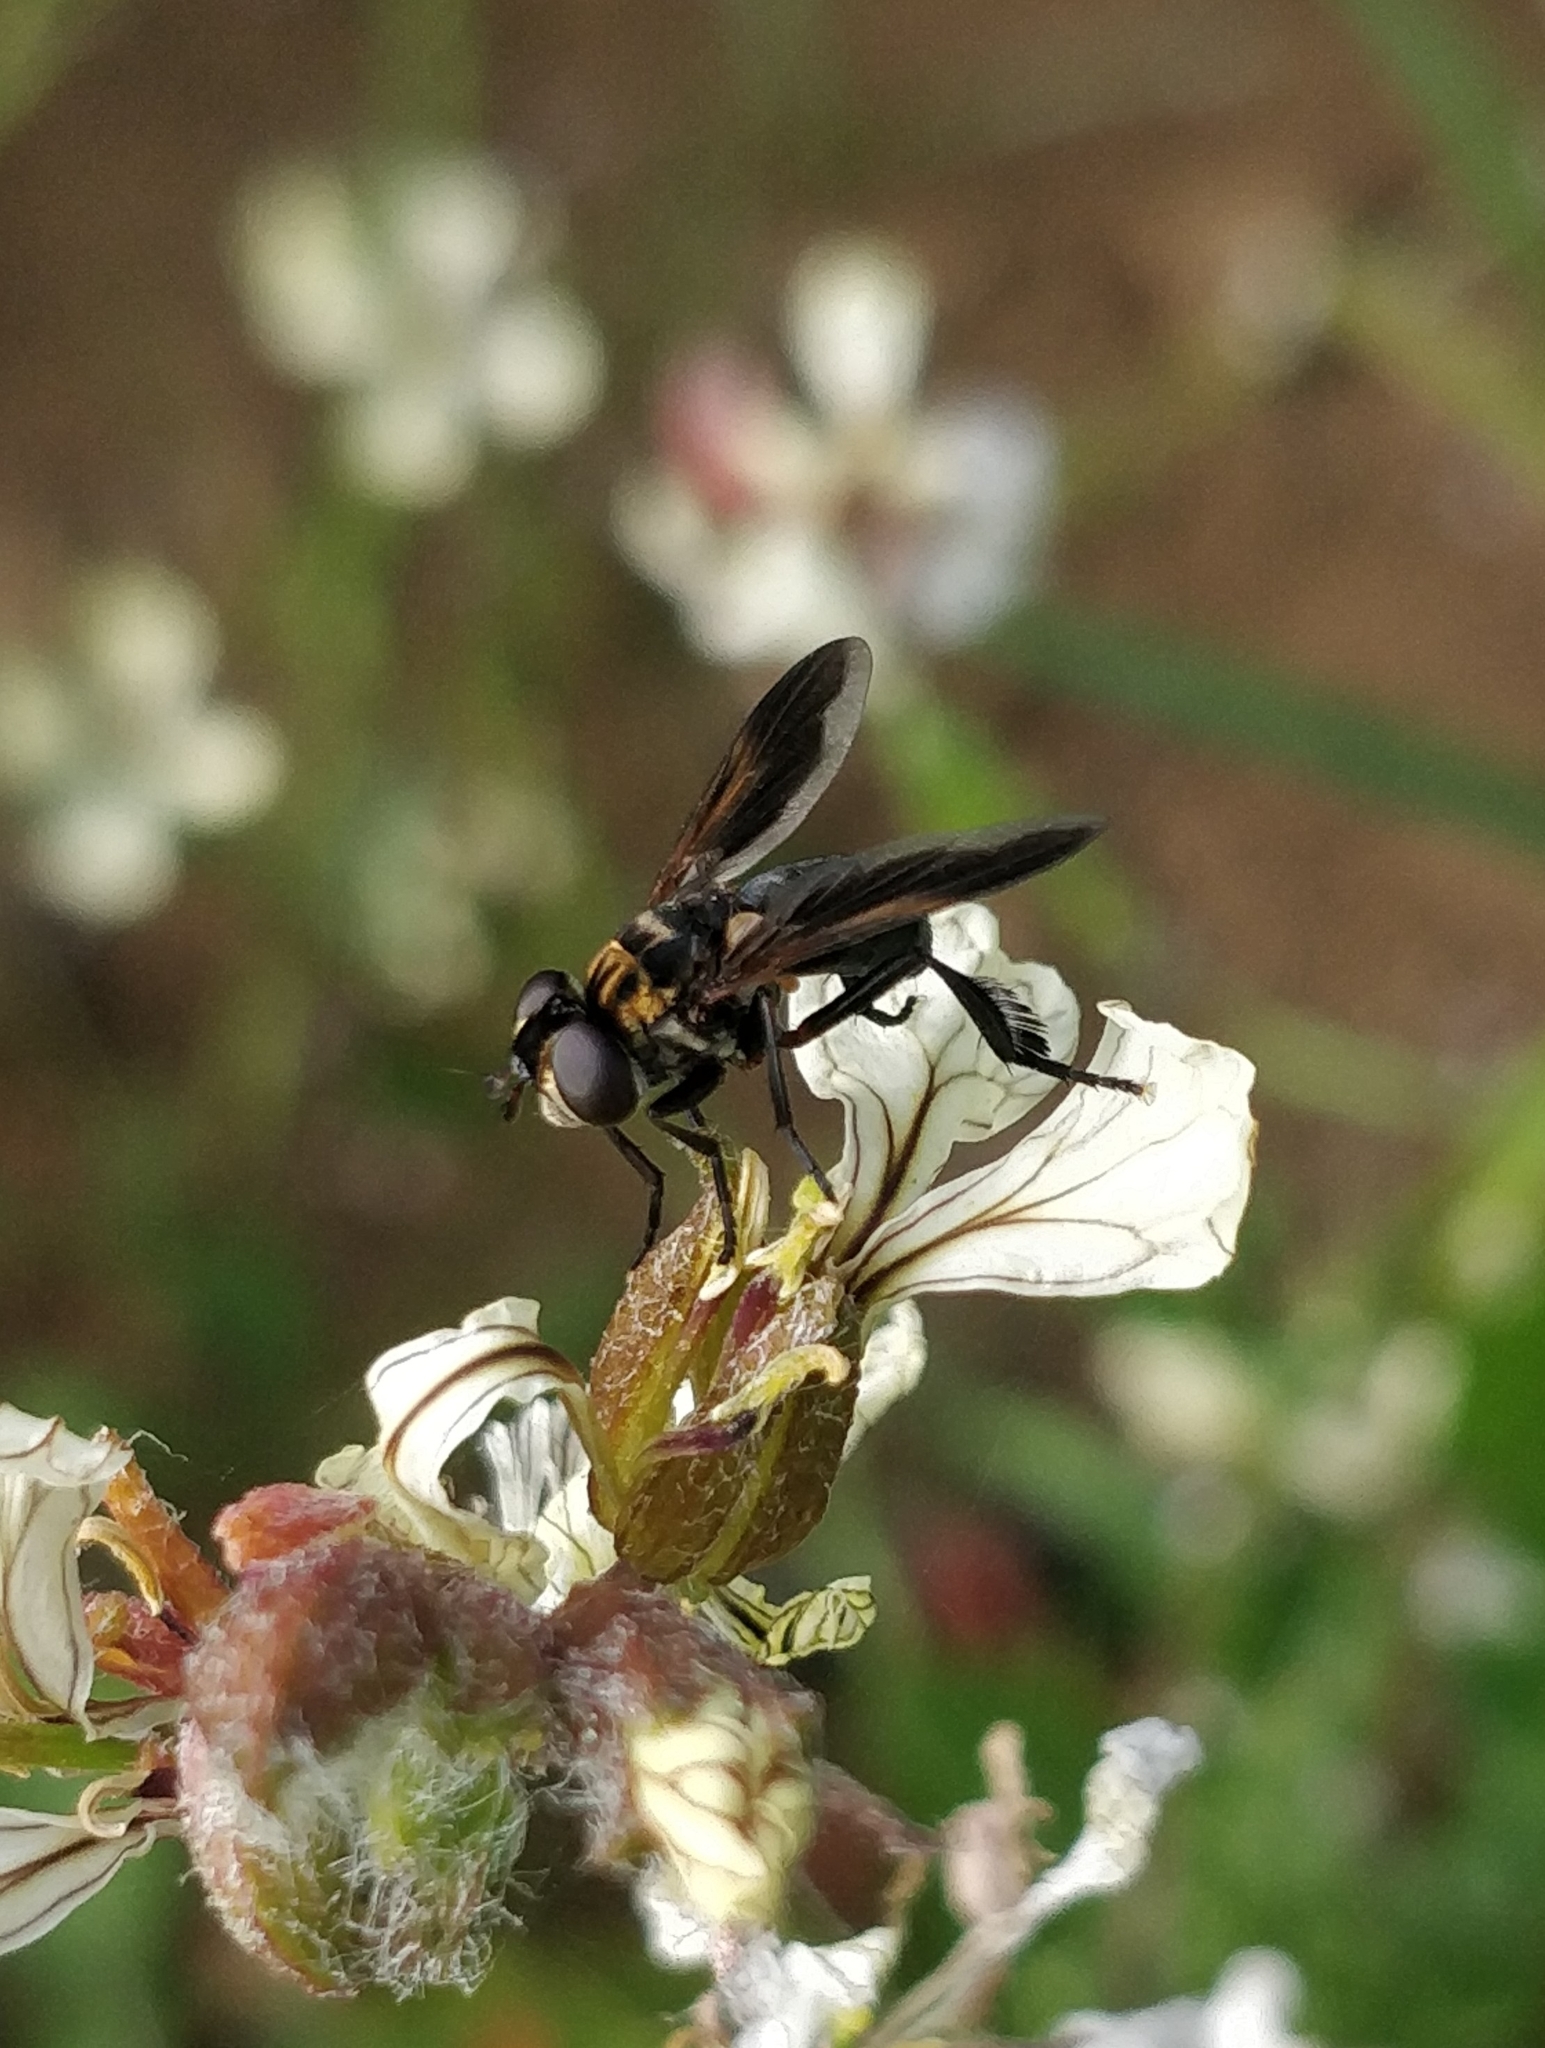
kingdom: Animalia
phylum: Arthropoda
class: Insecta
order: Diptera
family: Tachinidae
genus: Trichopoda
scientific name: Trichopoda pictipennis
